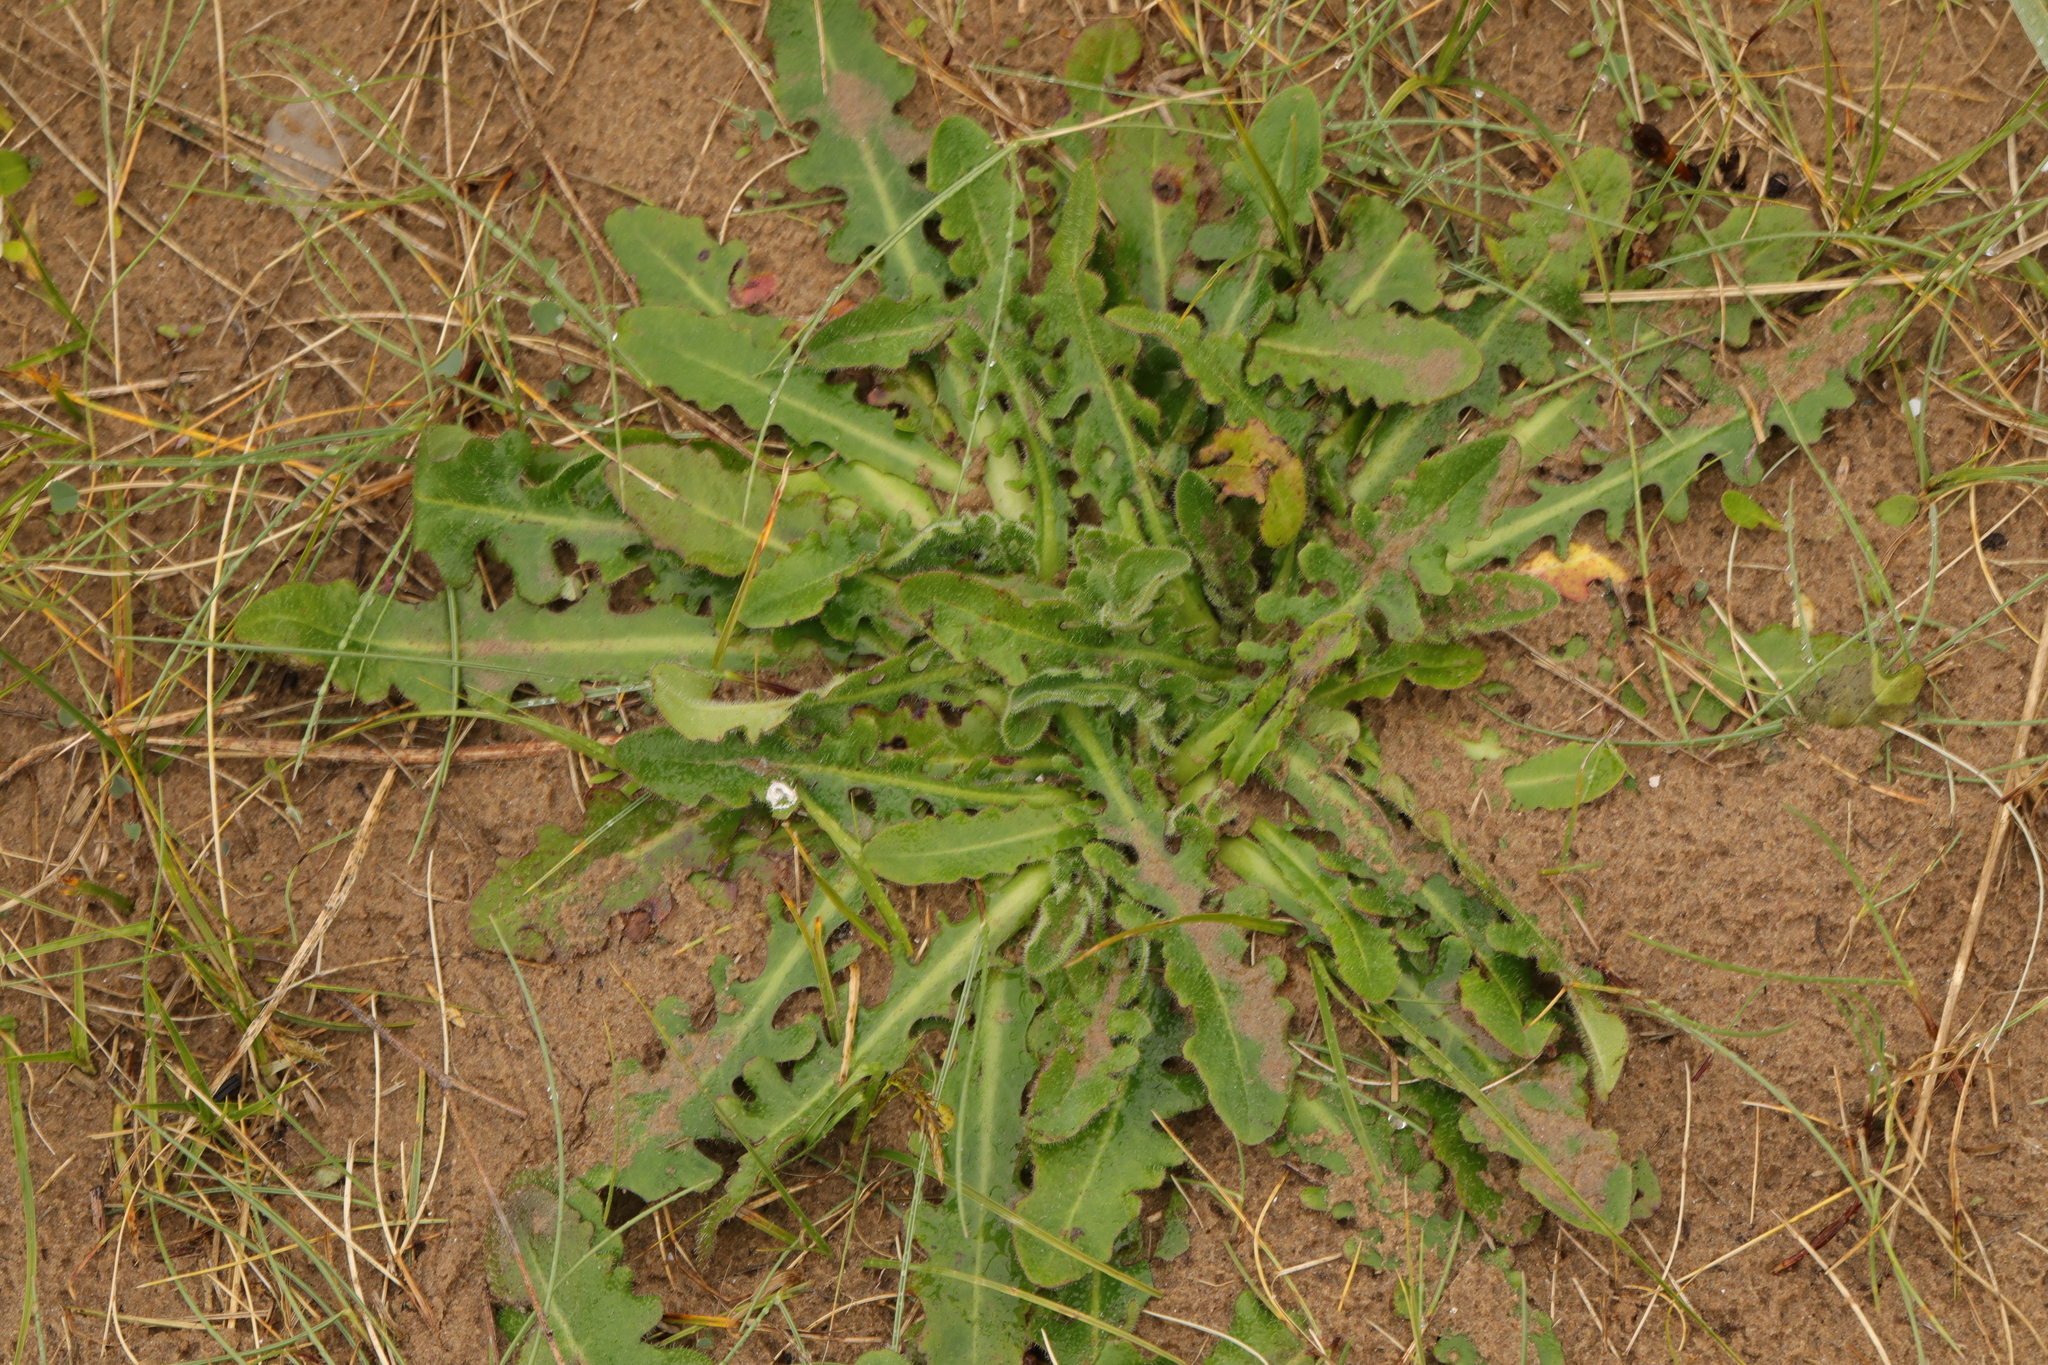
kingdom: Plantae
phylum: Tracheophyta
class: Magnoliopsida
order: Asterales
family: Asteraceae
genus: Hypochaeris
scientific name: Hypochaeris radicata
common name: Flatweed
